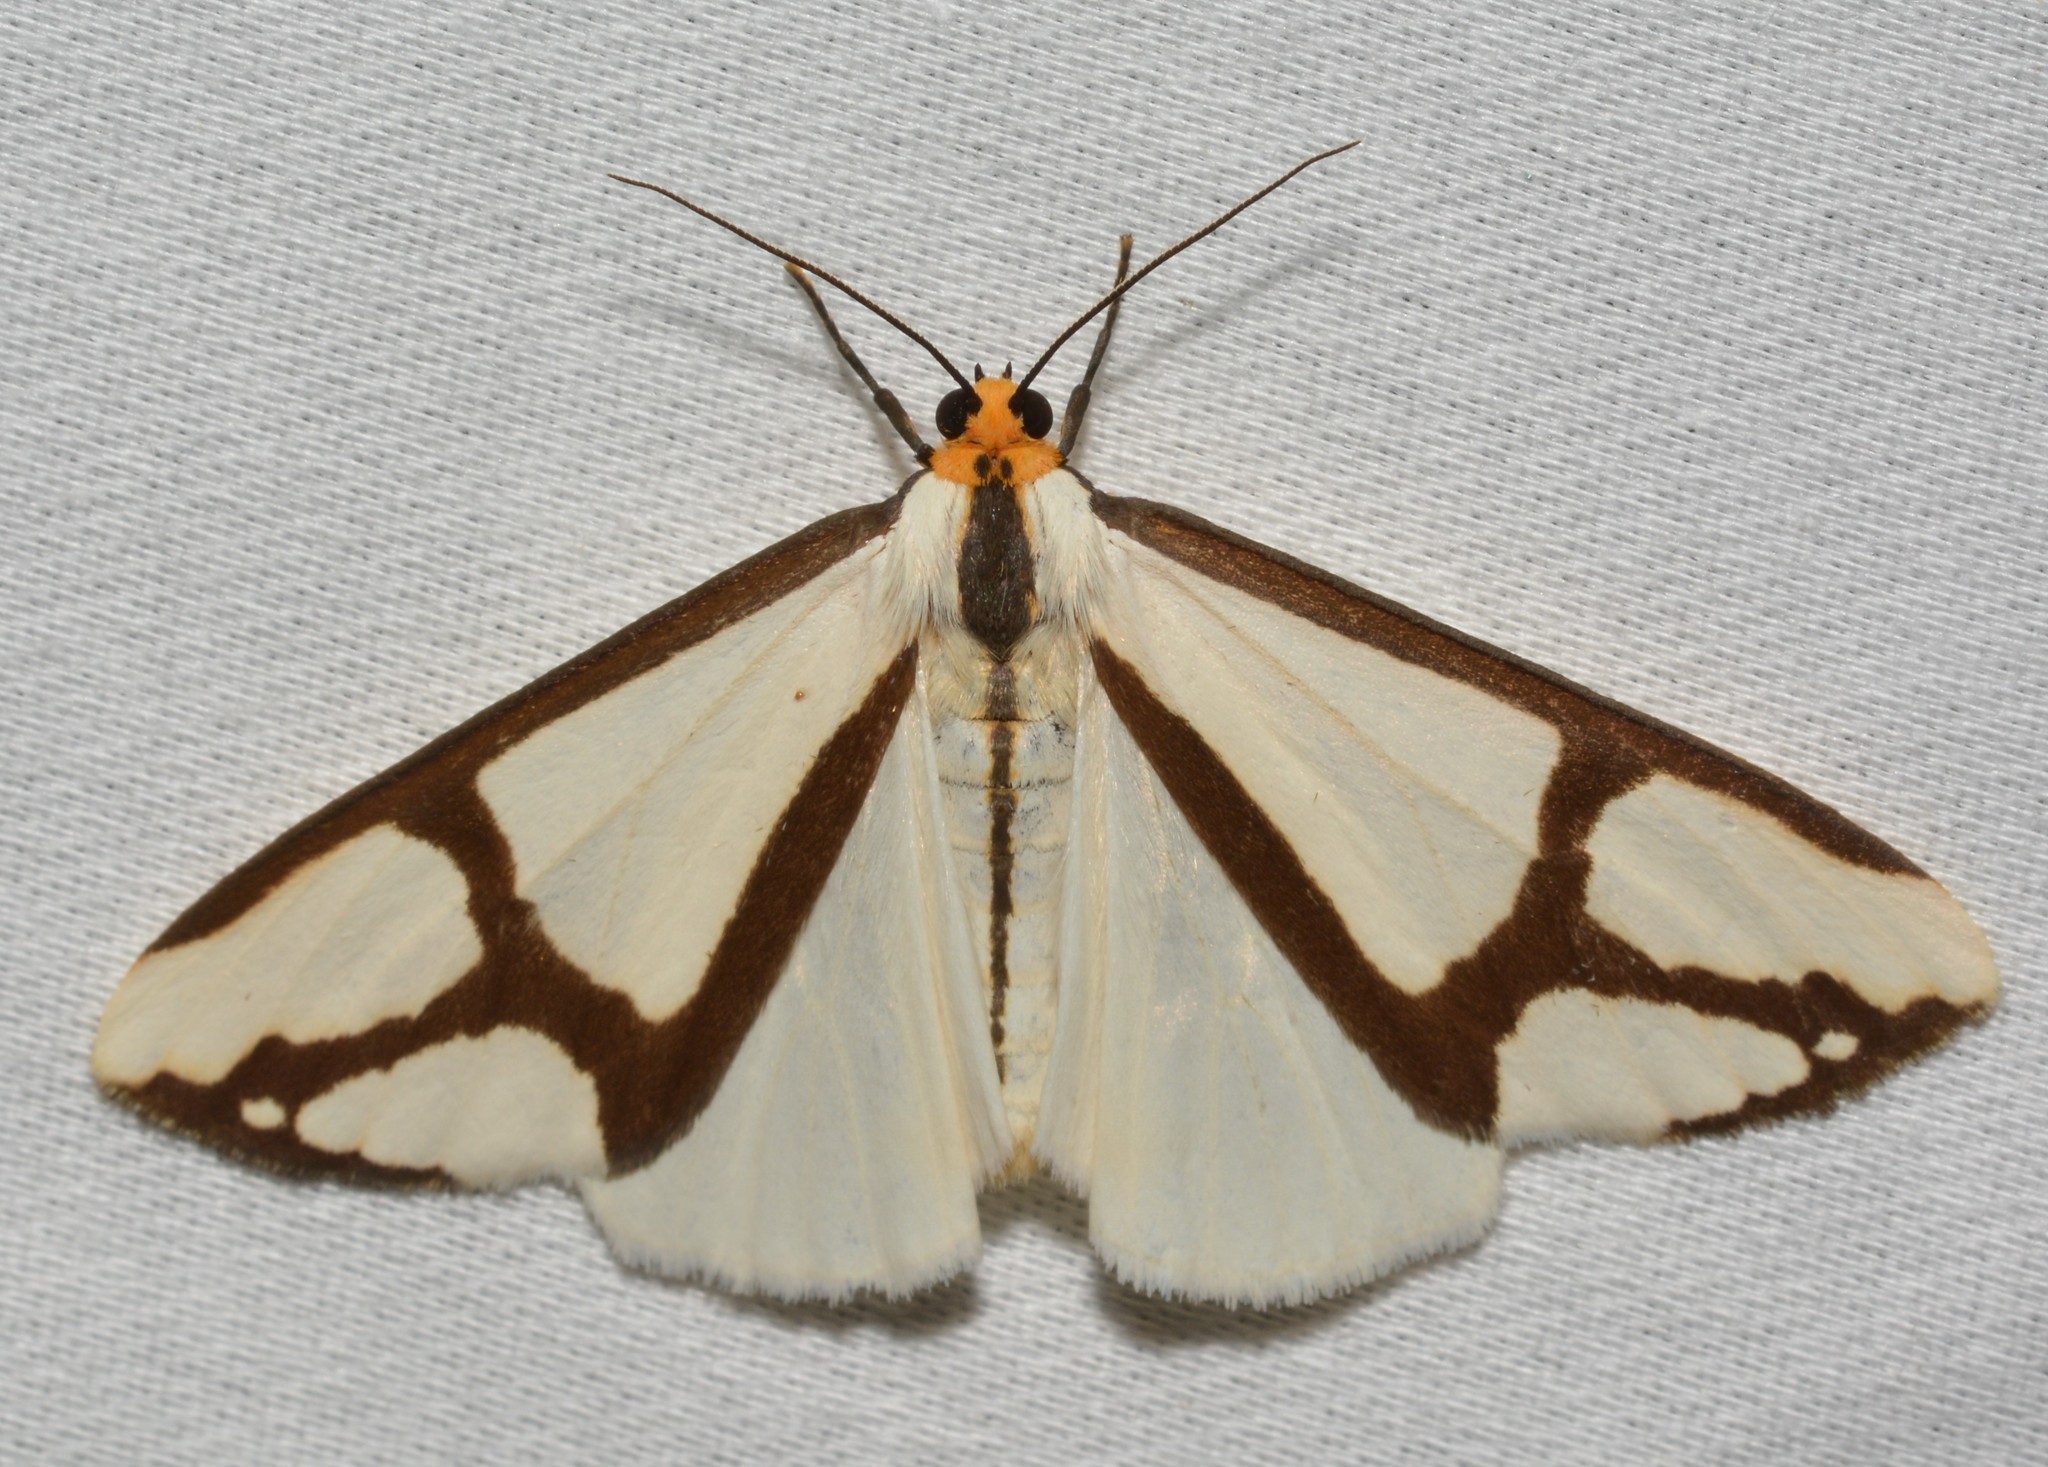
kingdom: Animalia
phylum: Arthropoda
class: Insecta
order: Lepidoptera
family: Erebidae
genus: Haploa
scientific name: Haploa contigua
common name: Neighbor moth
